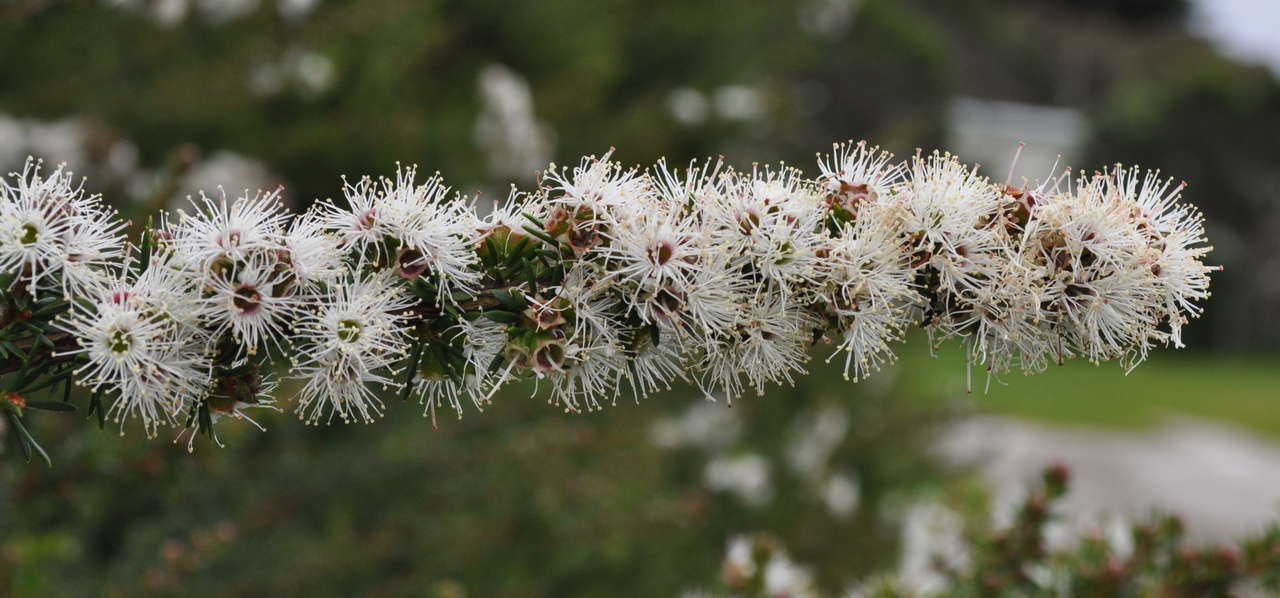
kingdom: Plantae
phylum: Tracheophyta
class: Magnoliopsida
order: Myrtales
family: Myrtaceae
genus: Kunzea
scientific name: Kunzea ambigua
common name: Tickbush
